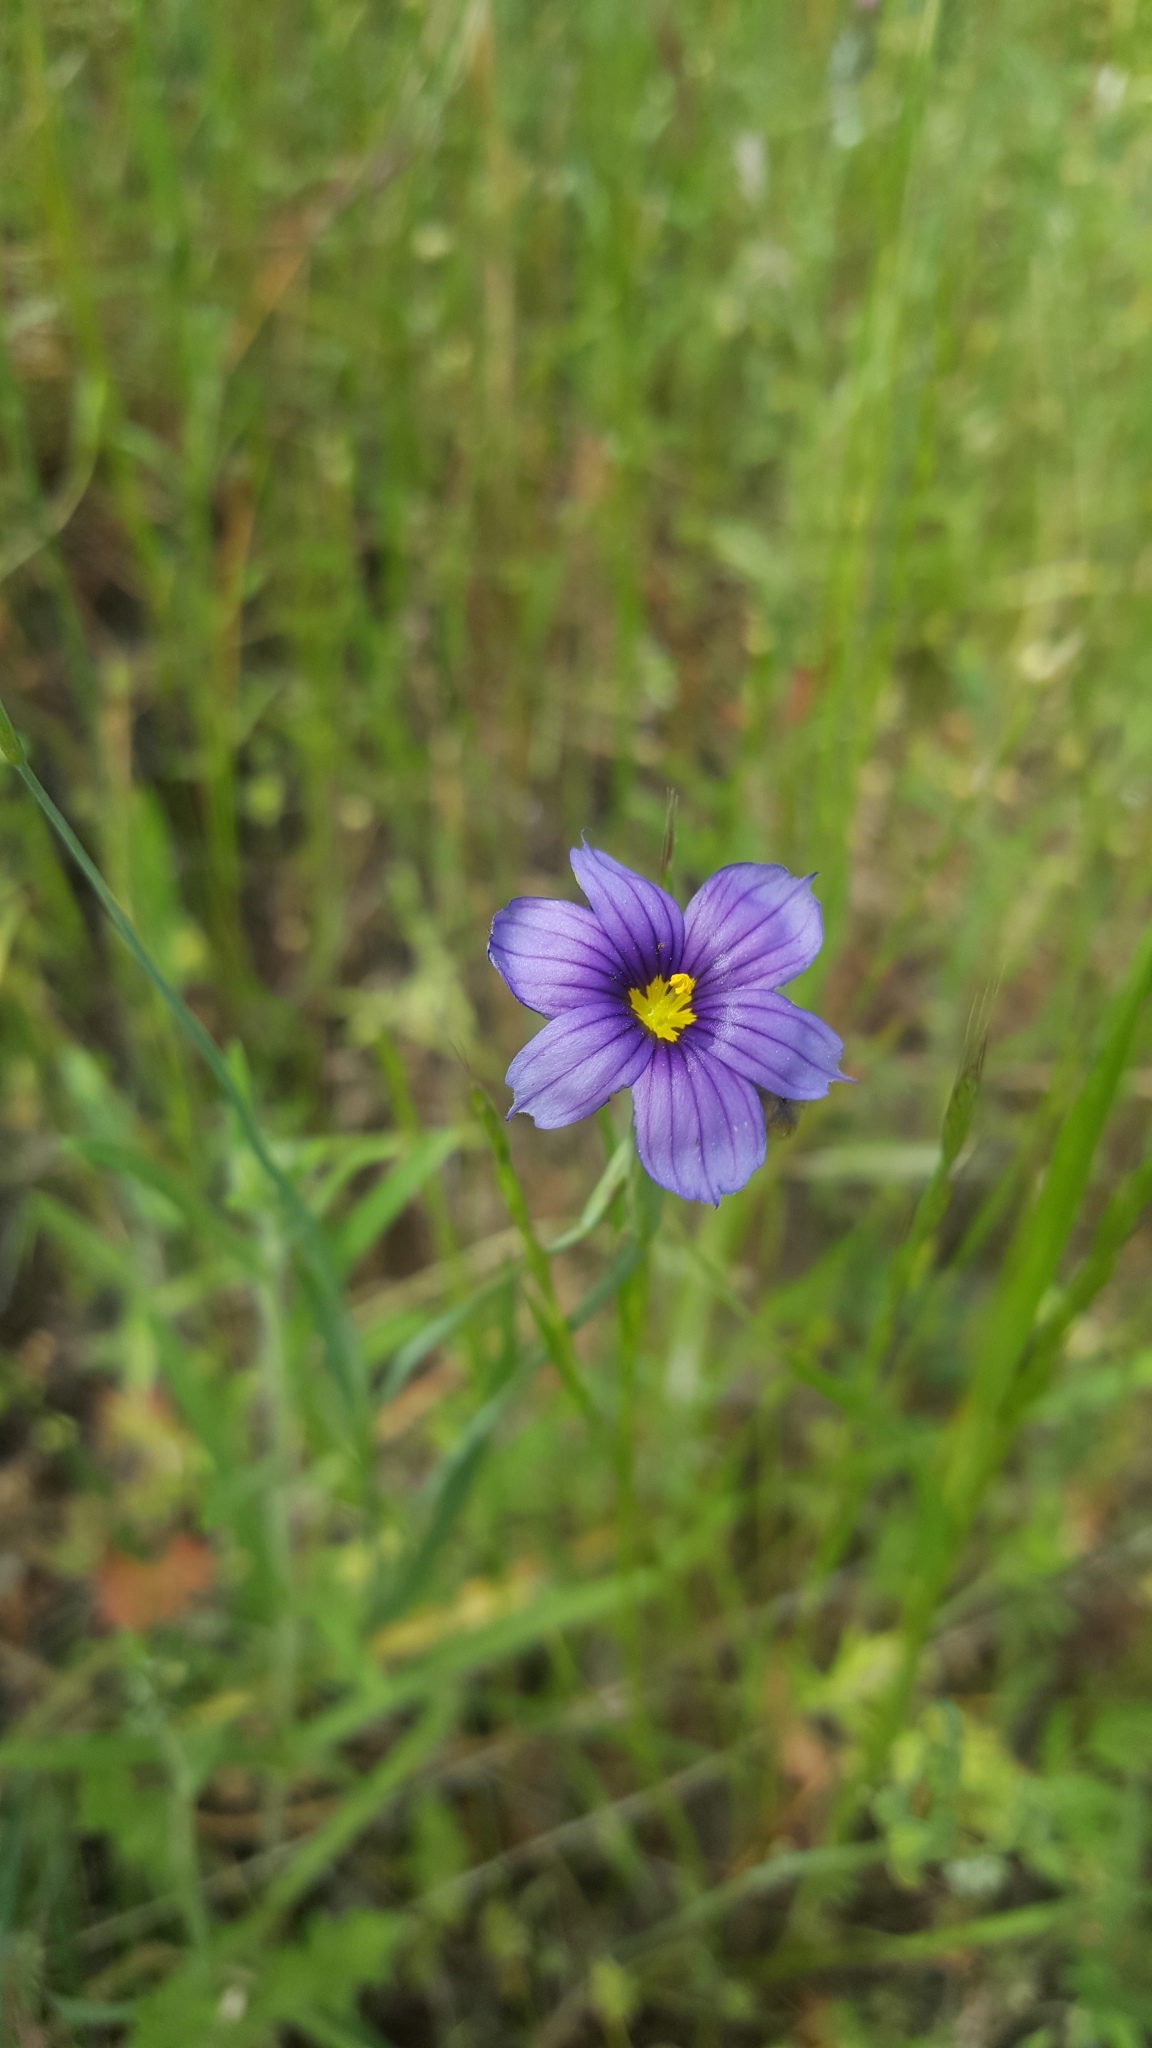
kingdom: Plantae
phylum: Tracheophyta
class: Liliopsida
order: Asparagales
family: Iridaceae
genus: Sisyrinchium
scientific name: Sisyrinchium bellum
